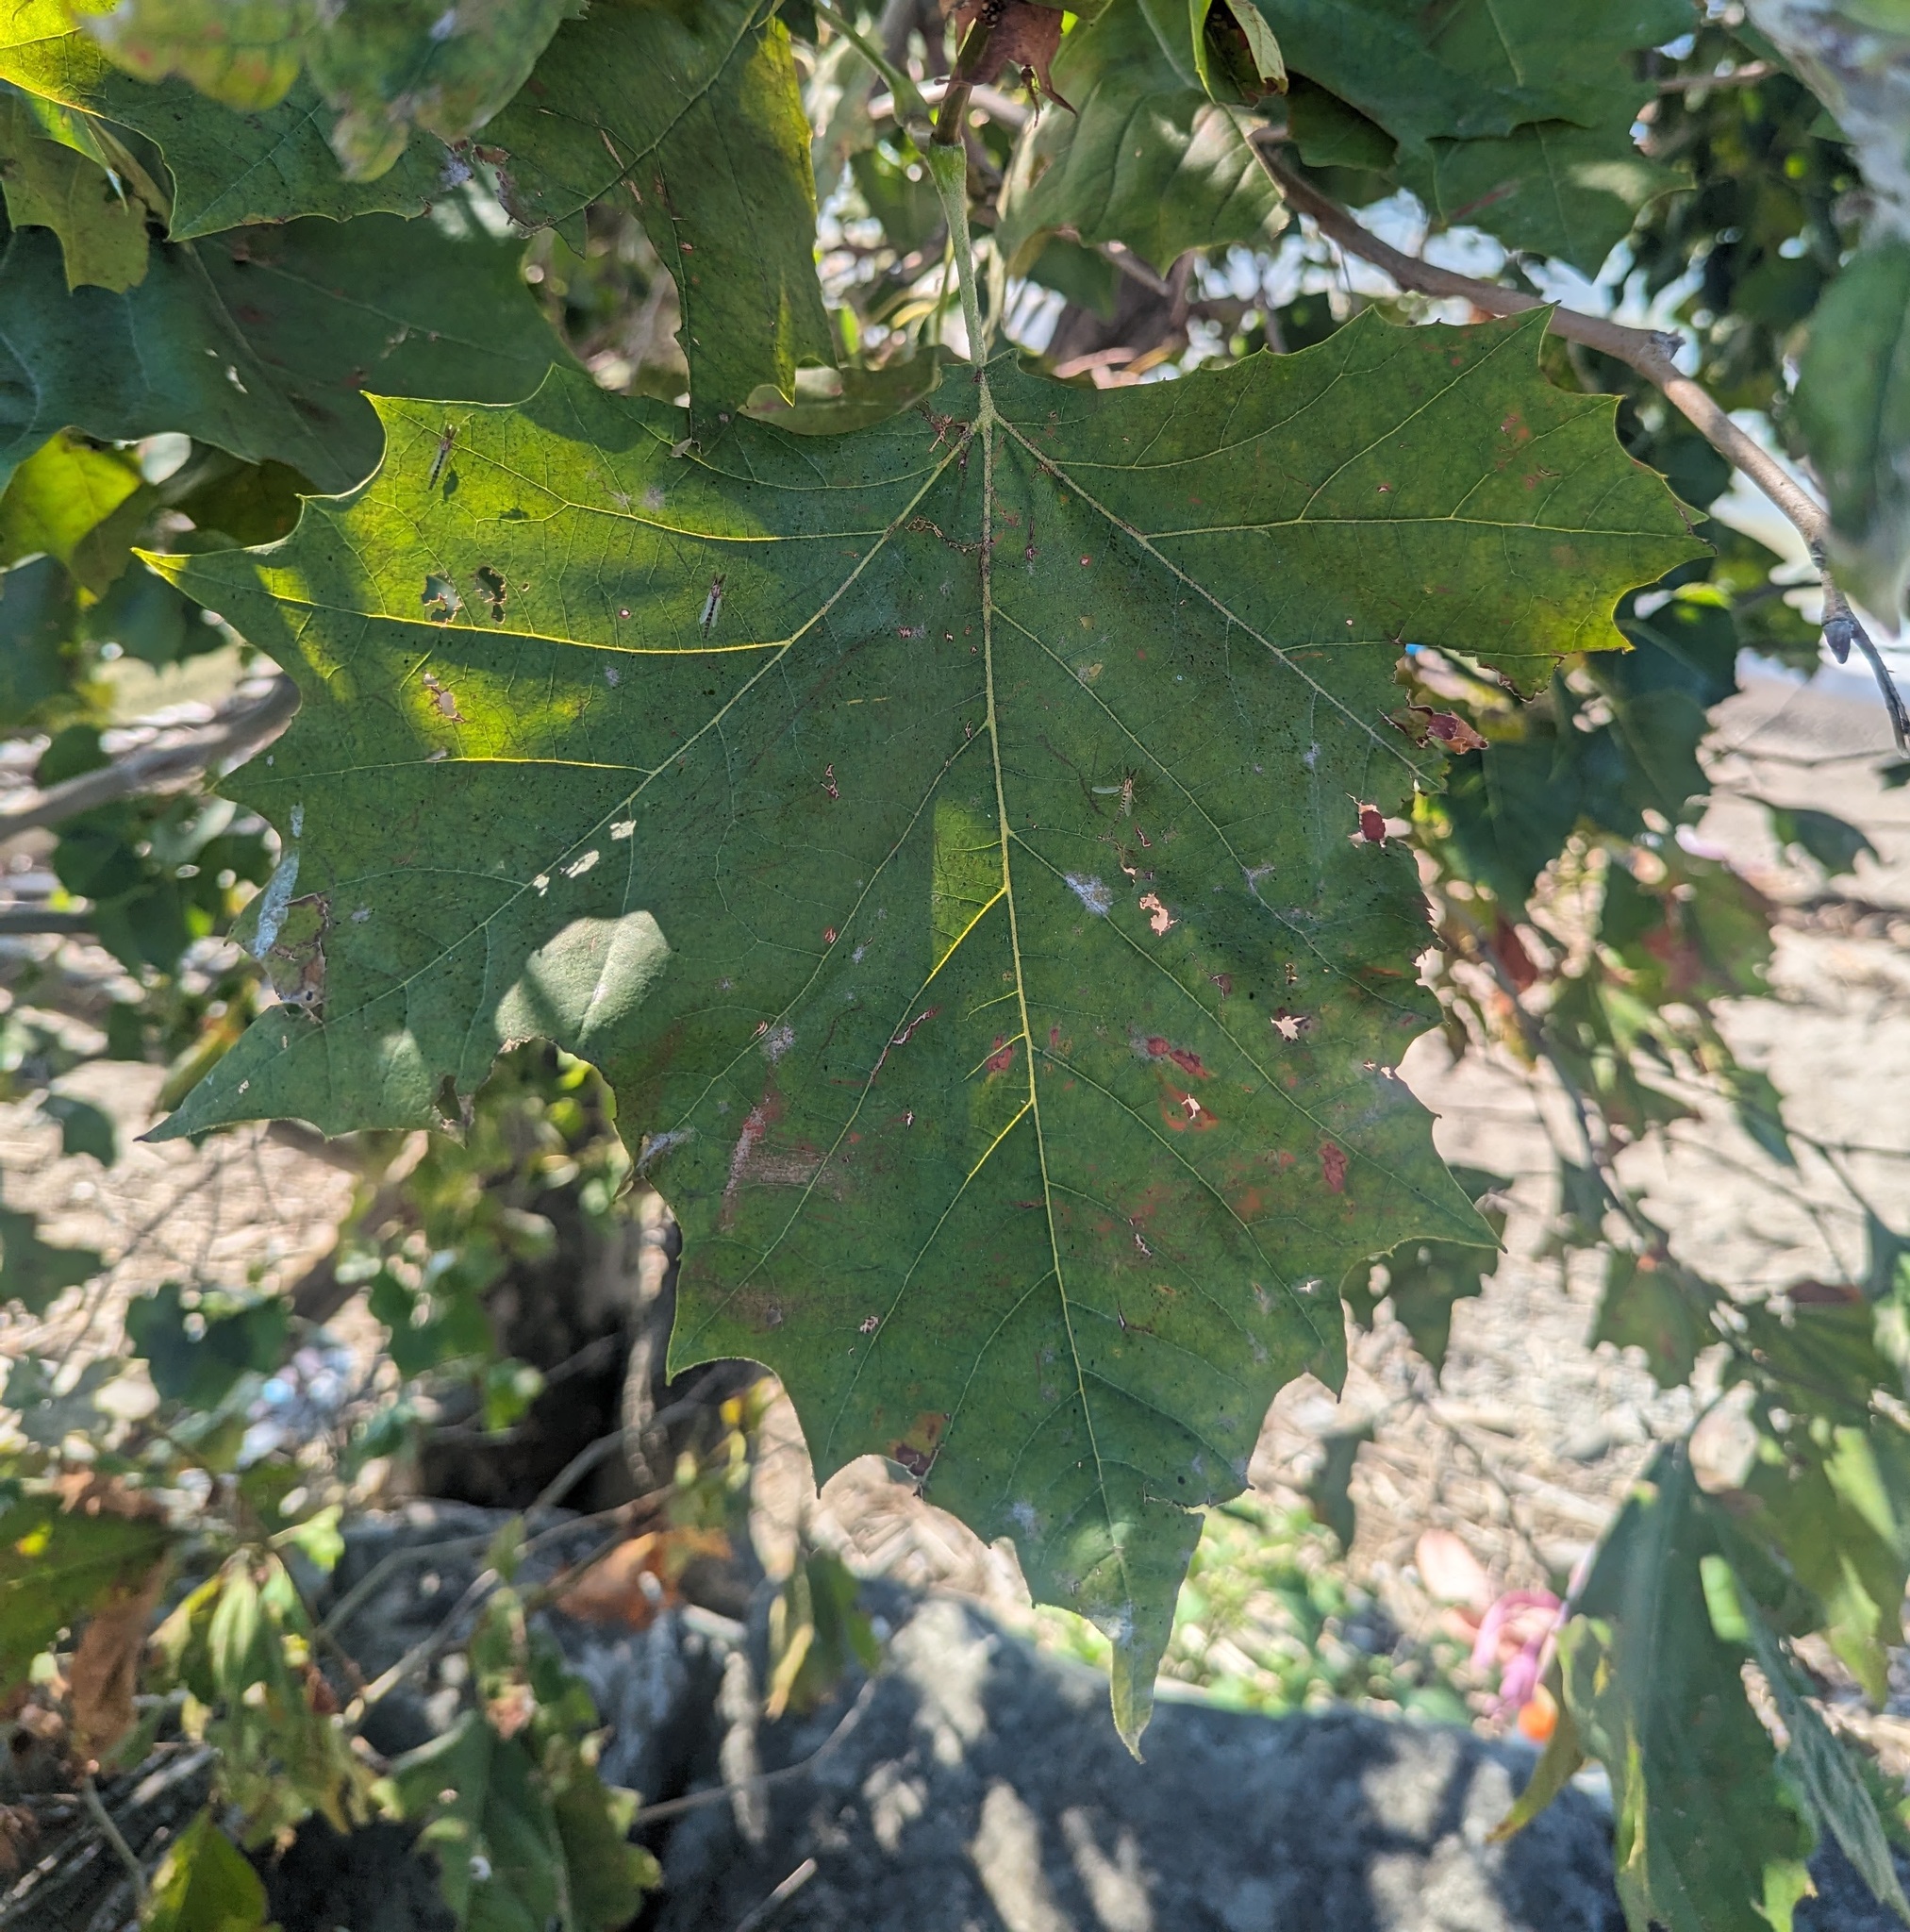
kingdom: Plantae
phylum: Tracheophyta
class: Magnoliopsida
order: Proteales
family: Platanaceae
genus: Platanus
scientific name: Platanus occidentalis
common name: American sycamore
